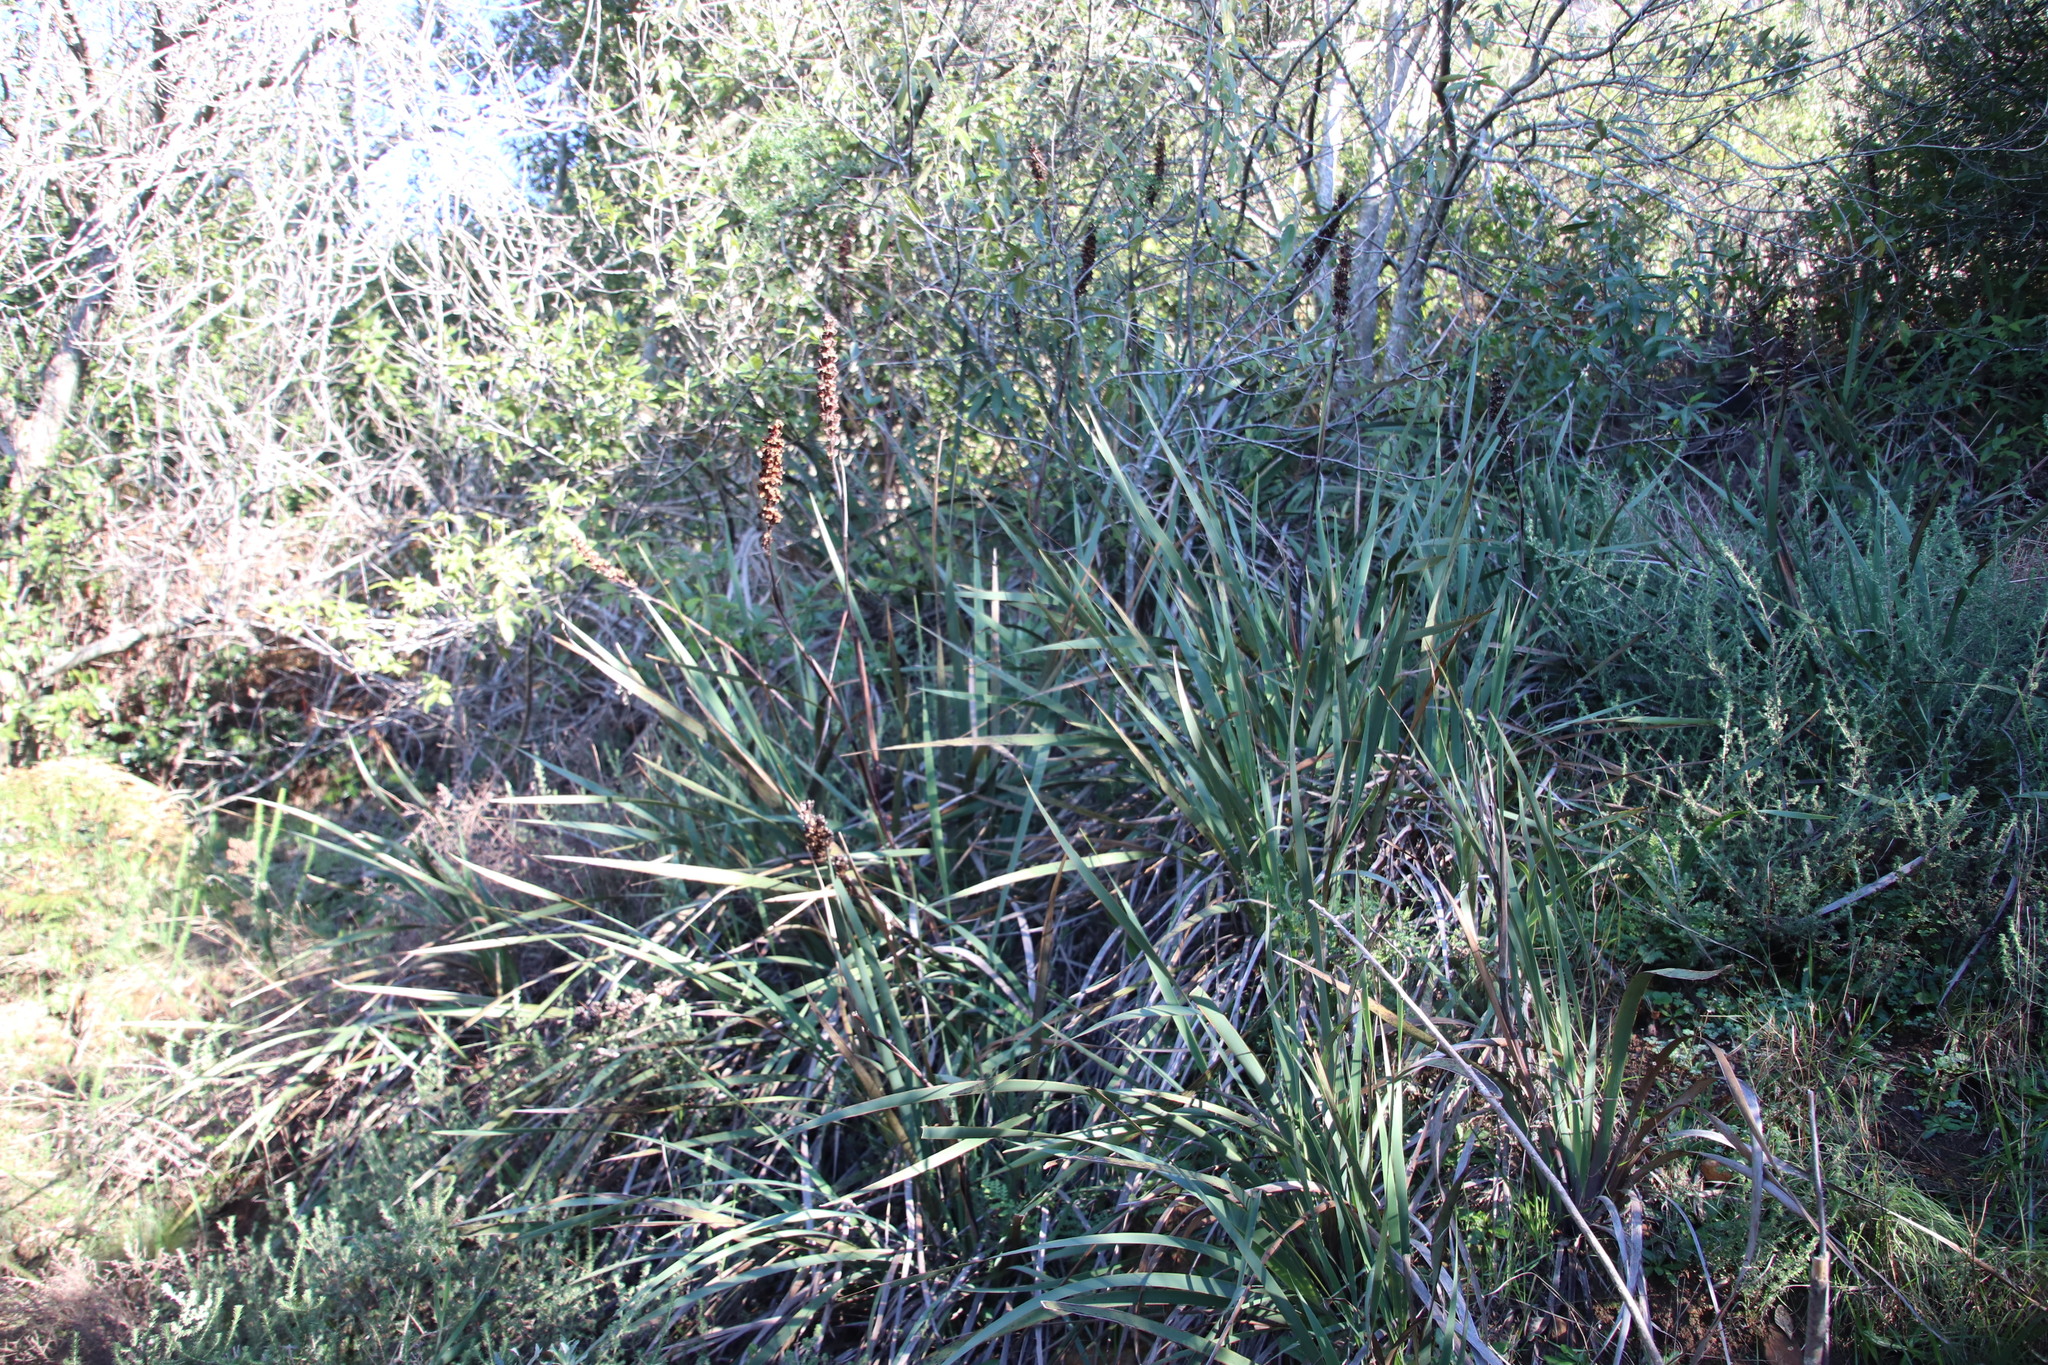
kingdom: Plantae
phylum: Tracheophyta
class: Liliopsida
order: Asparagales
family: Iridaceae
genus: Aristea
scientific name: Aristea capitata
